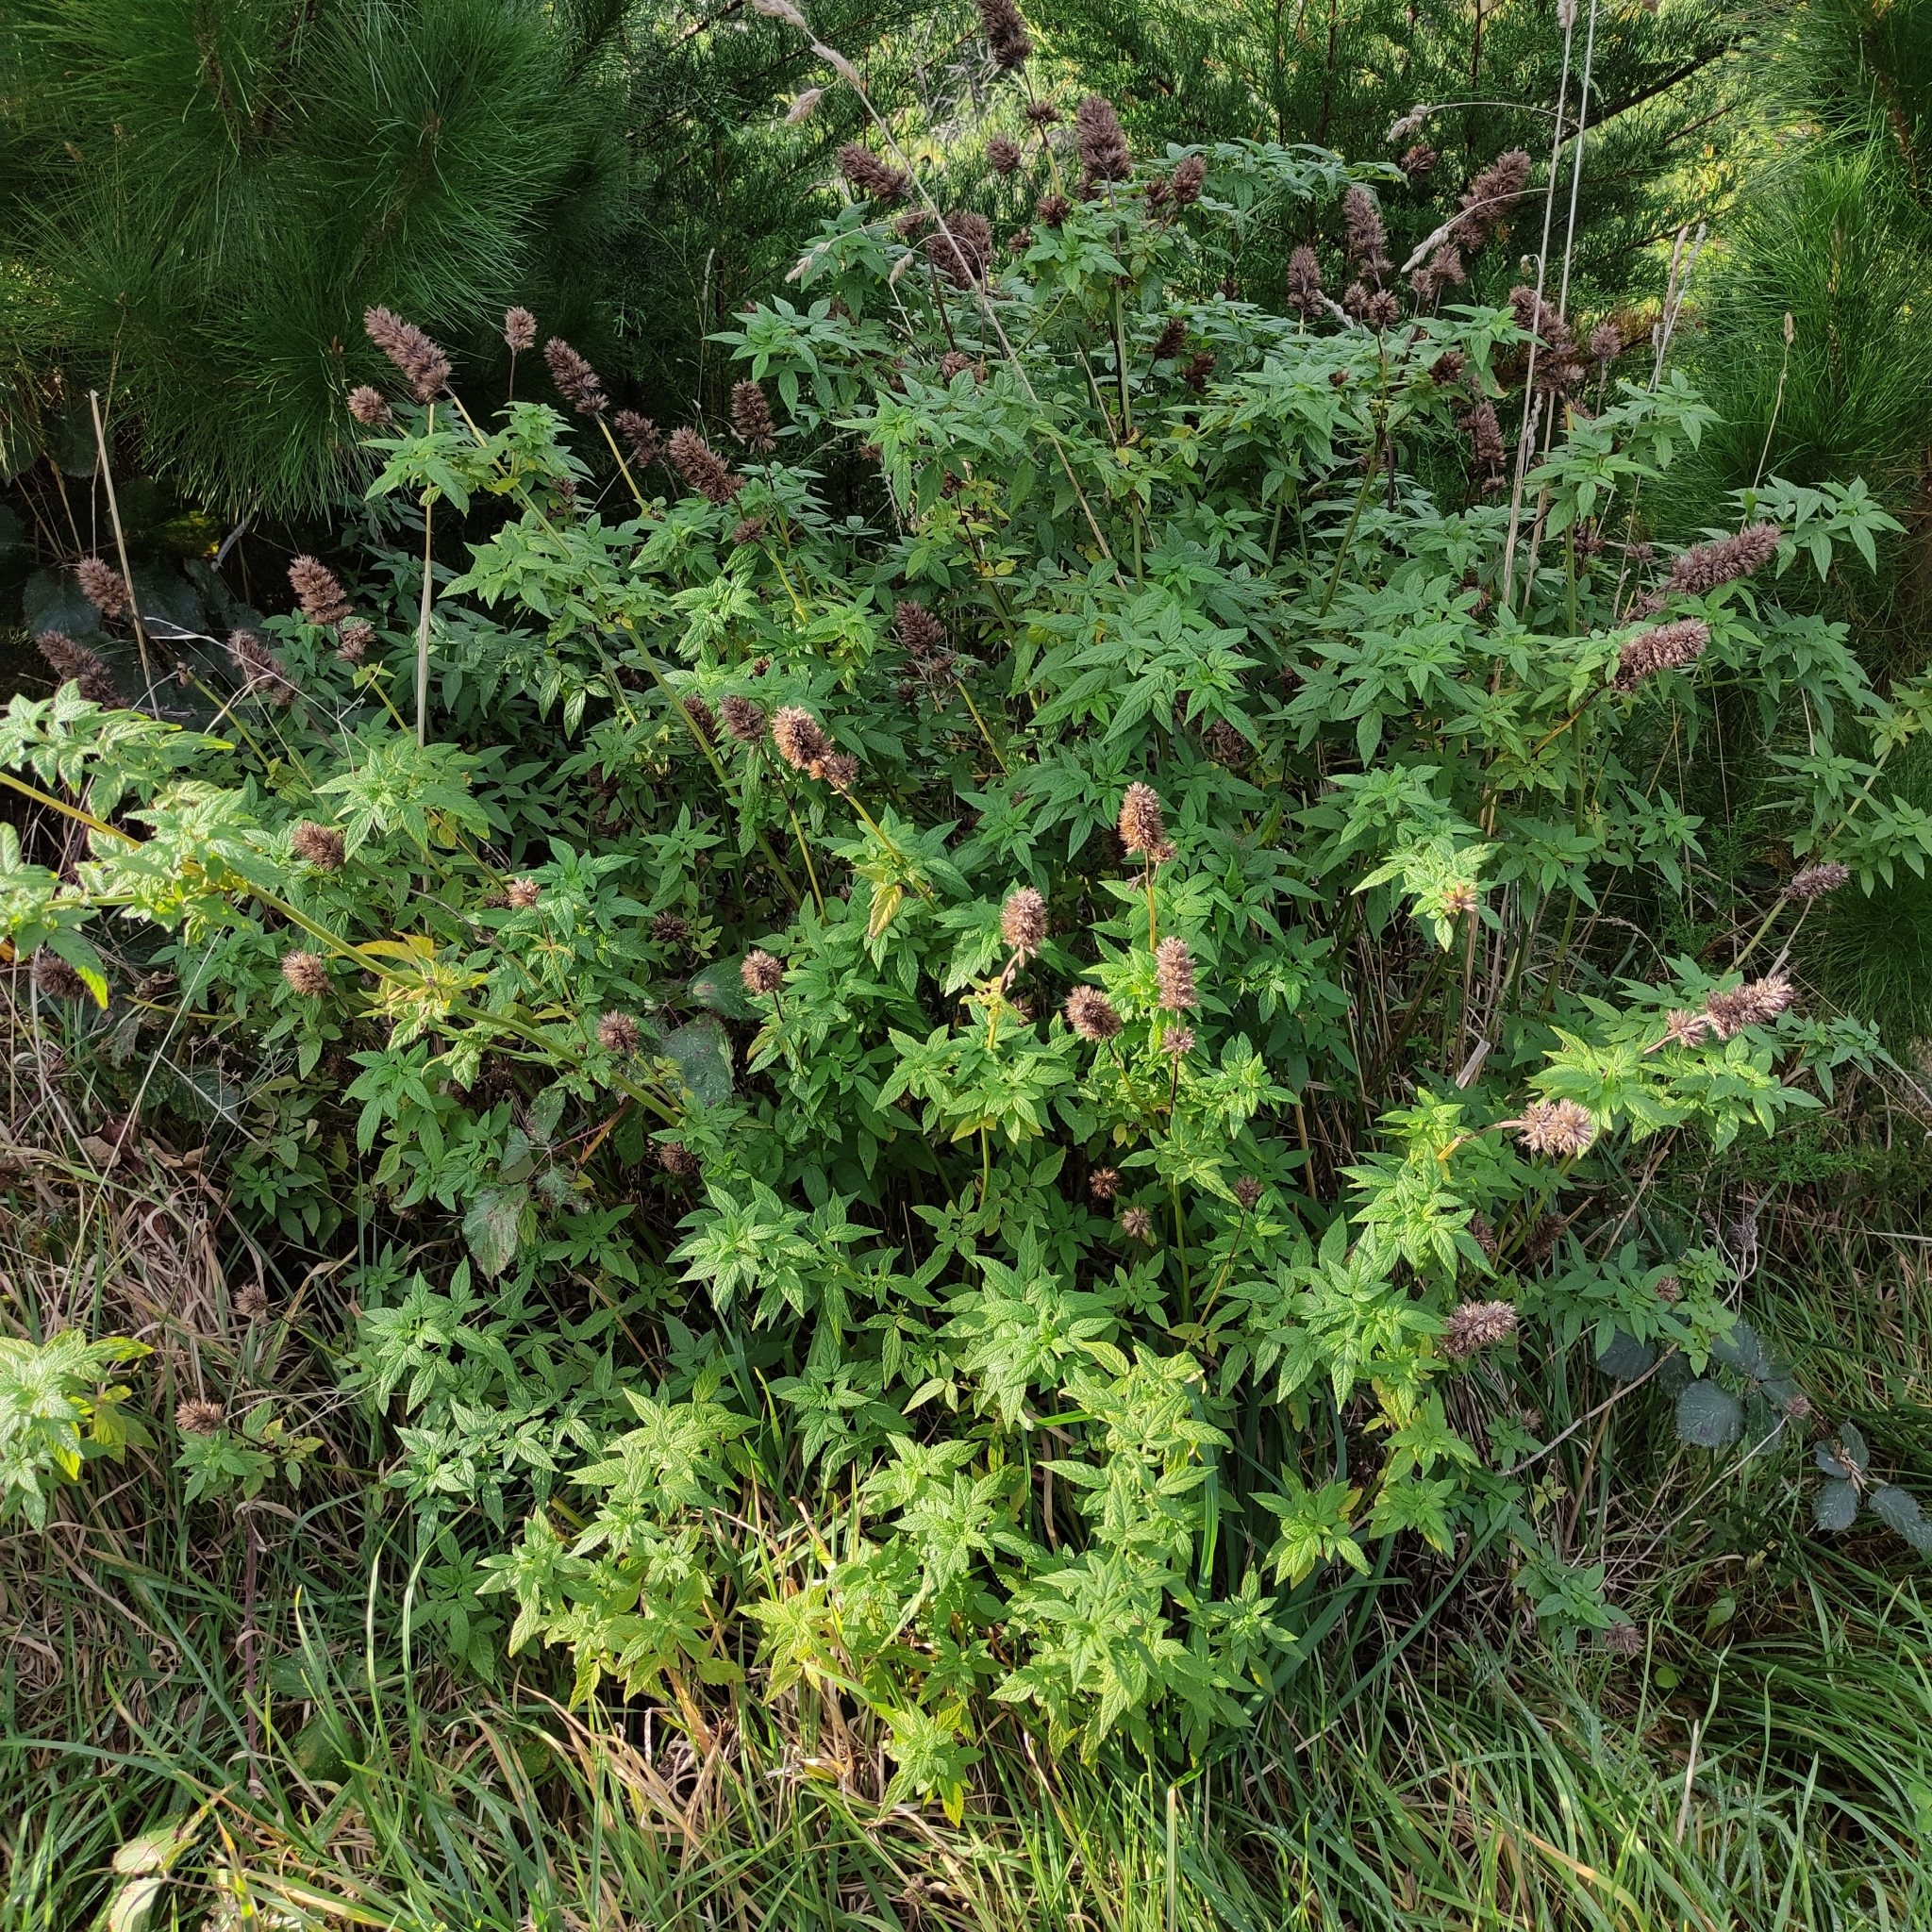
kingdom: Plantae
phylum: Tracheophyta
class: Magnoliopsida
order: Lamiales
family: Lamiaceae
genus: Cedronella
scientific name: Cedronella canariensis
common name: Canary islands balm
